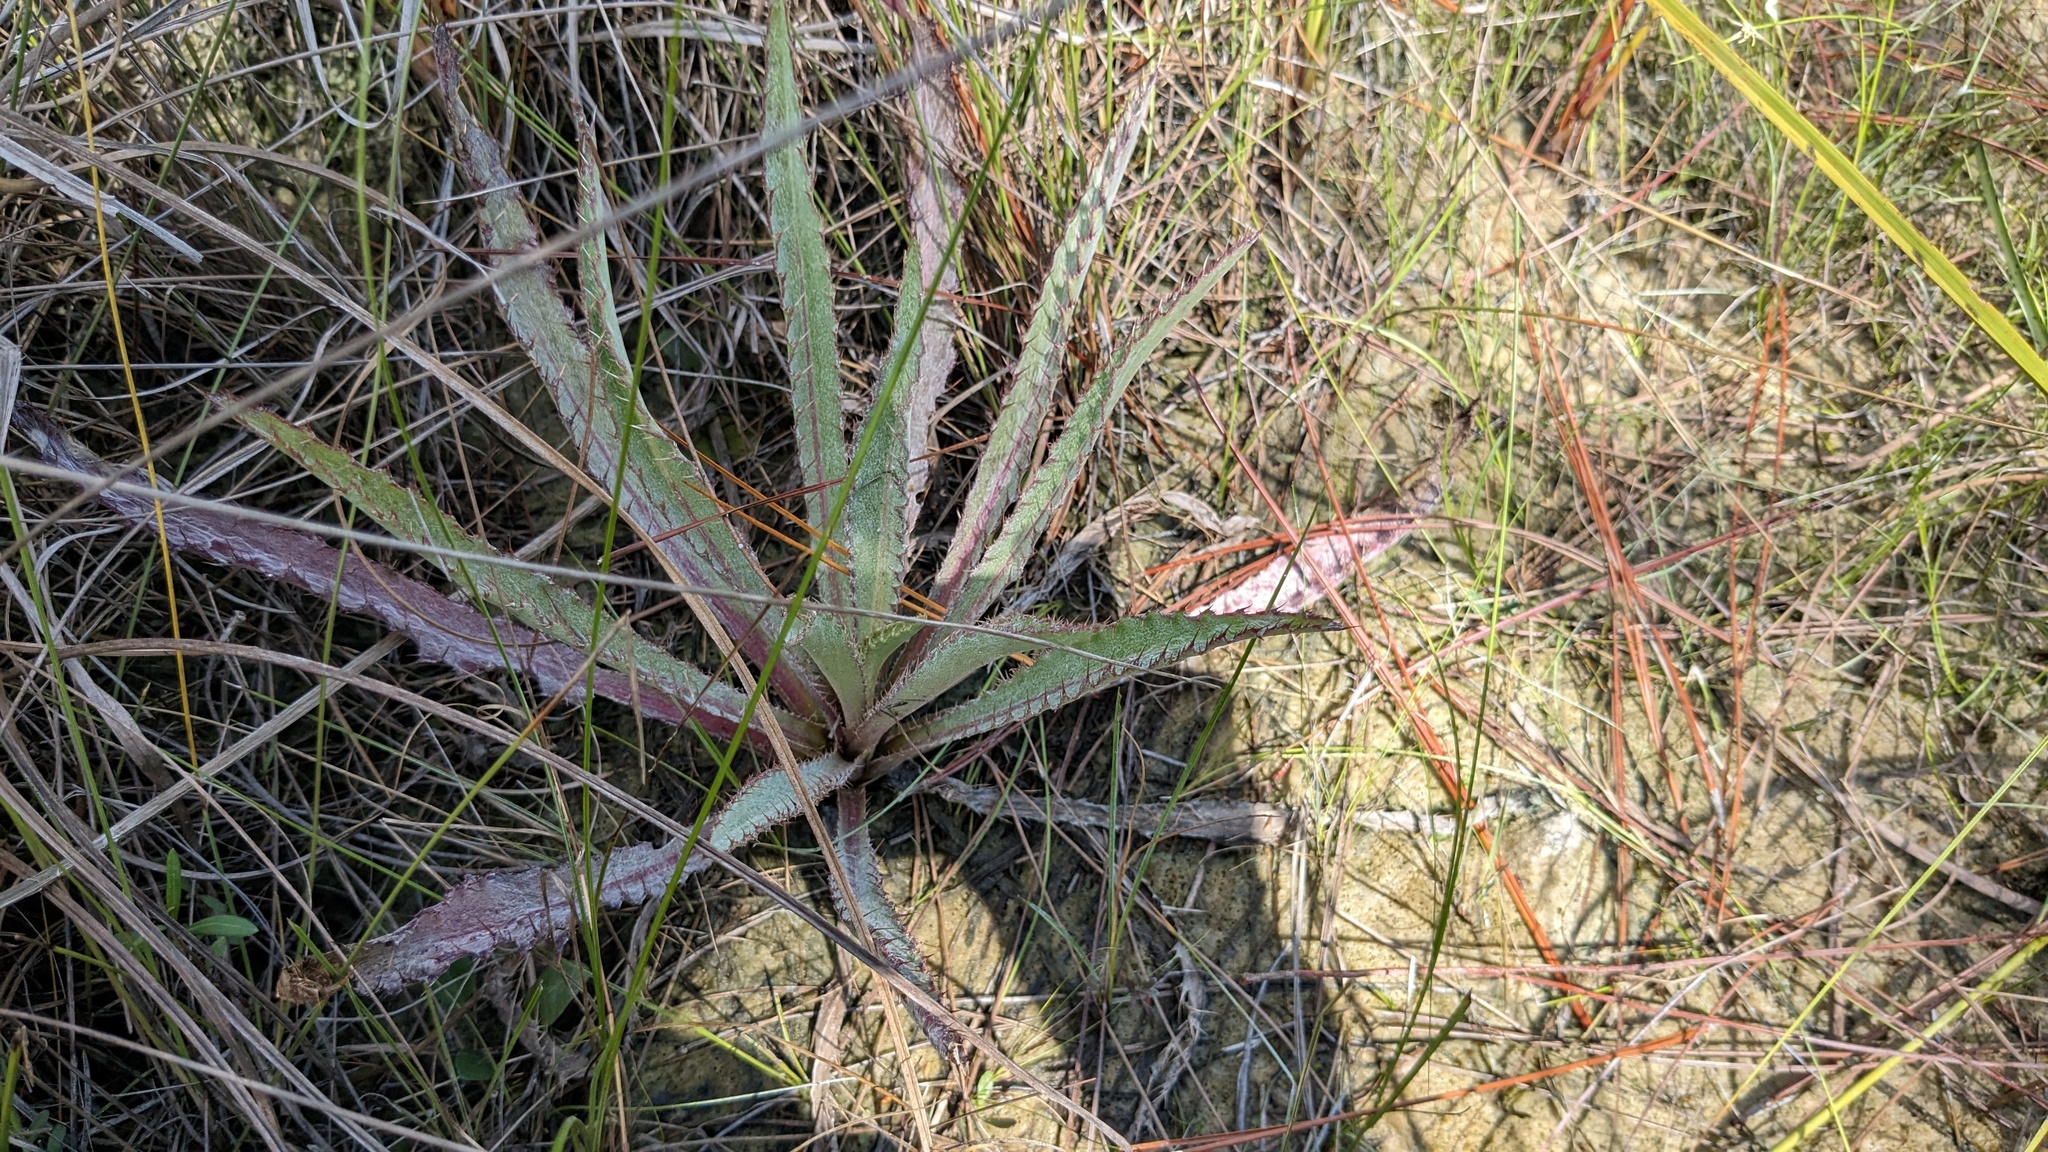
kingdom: Plantae
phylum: Tracheophyta
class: Magnoliopsida
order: Asterales
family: Asteraceae
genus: Cirsium
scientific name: Cirsium horridulum
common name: Bristly thistle
